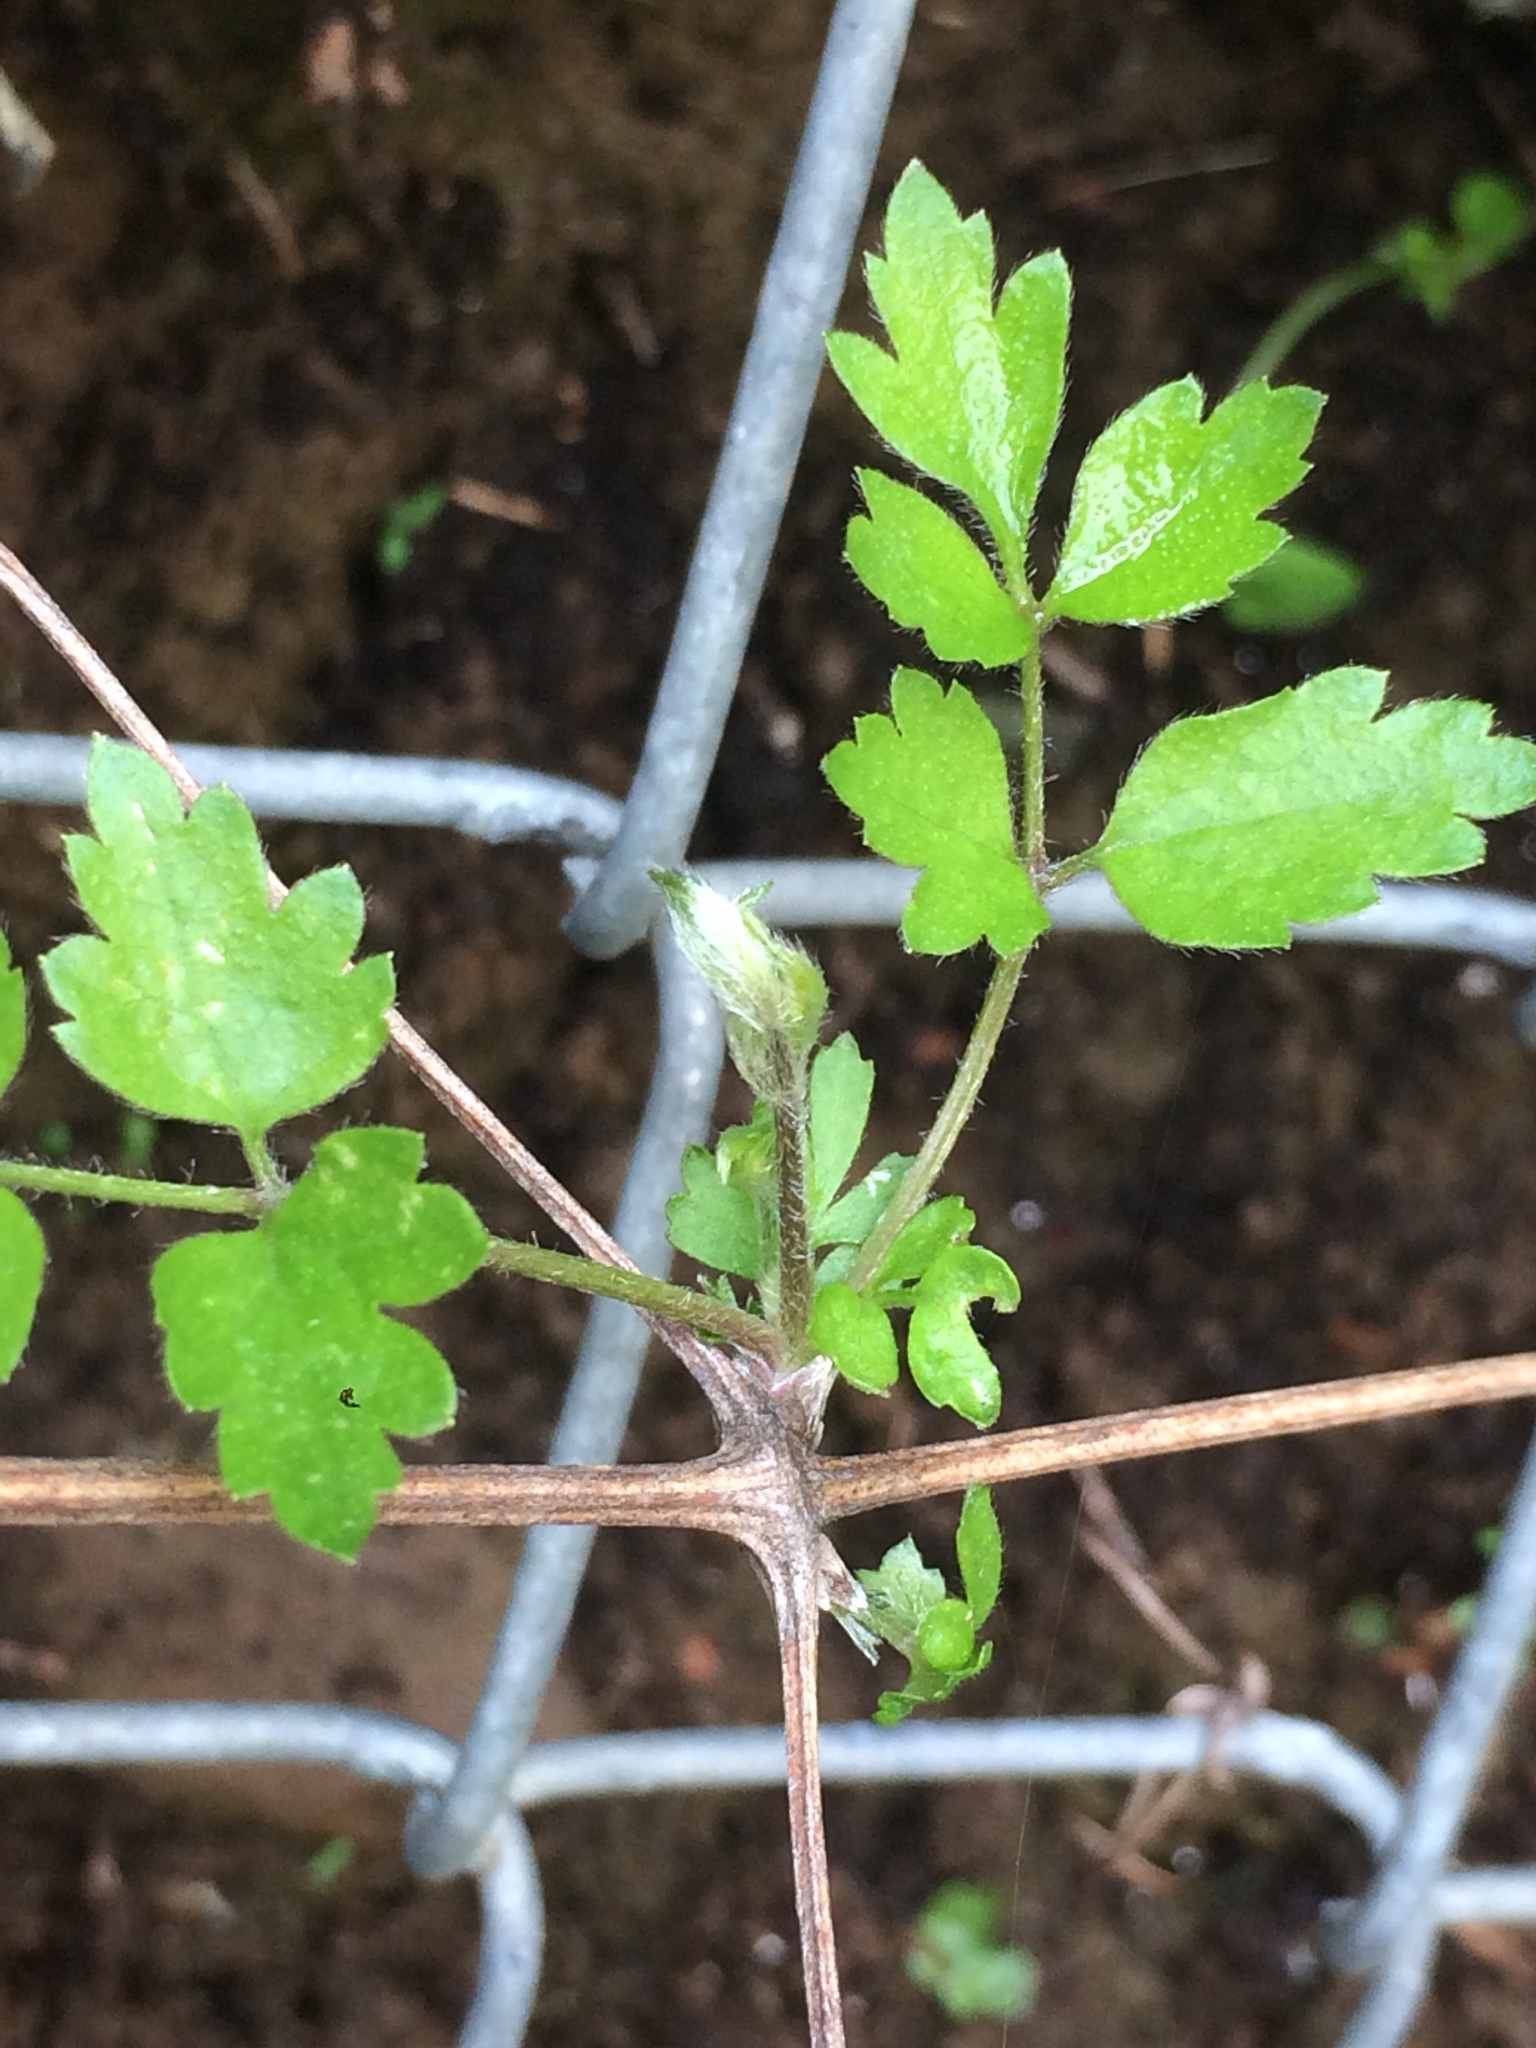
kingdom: Plantae
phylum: Tracheophyta
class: Magnoliopsida
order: Ranunculales
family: Ranunculaceae
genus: Clematis
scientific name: Clematis vitalba
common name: Evergreen clematis
